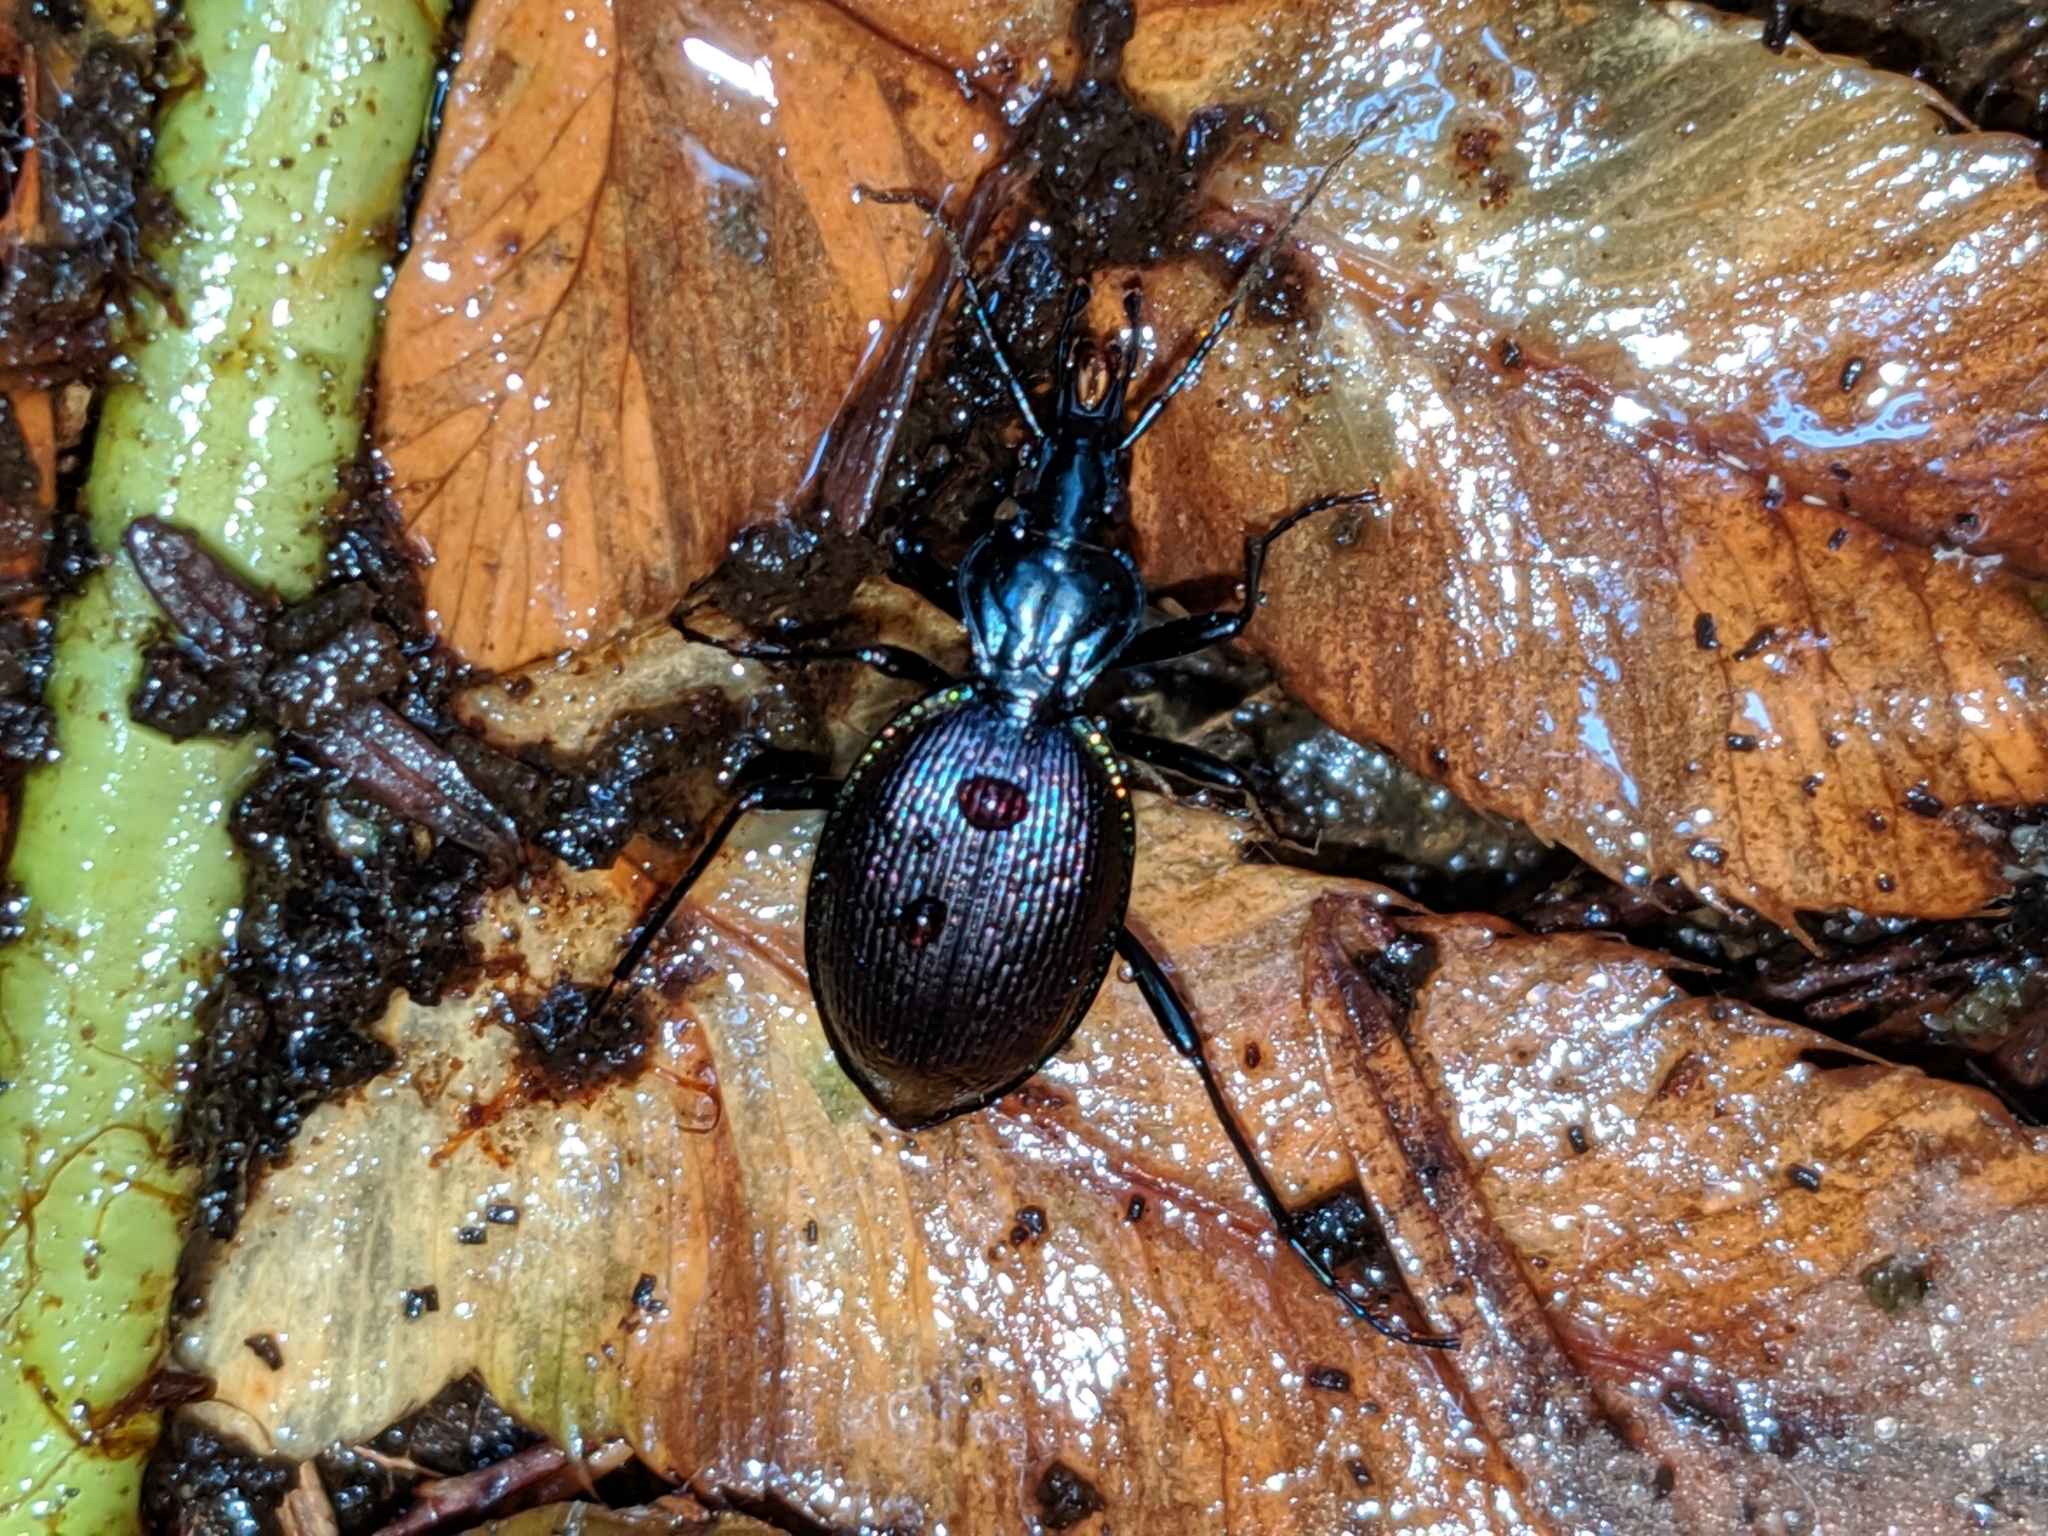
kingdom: Animalia
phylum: Arthropoda
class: Insecta
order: Coleoptera
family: Carabidae
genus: Scaphinotus
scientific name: Scaphinotus angusticollis
